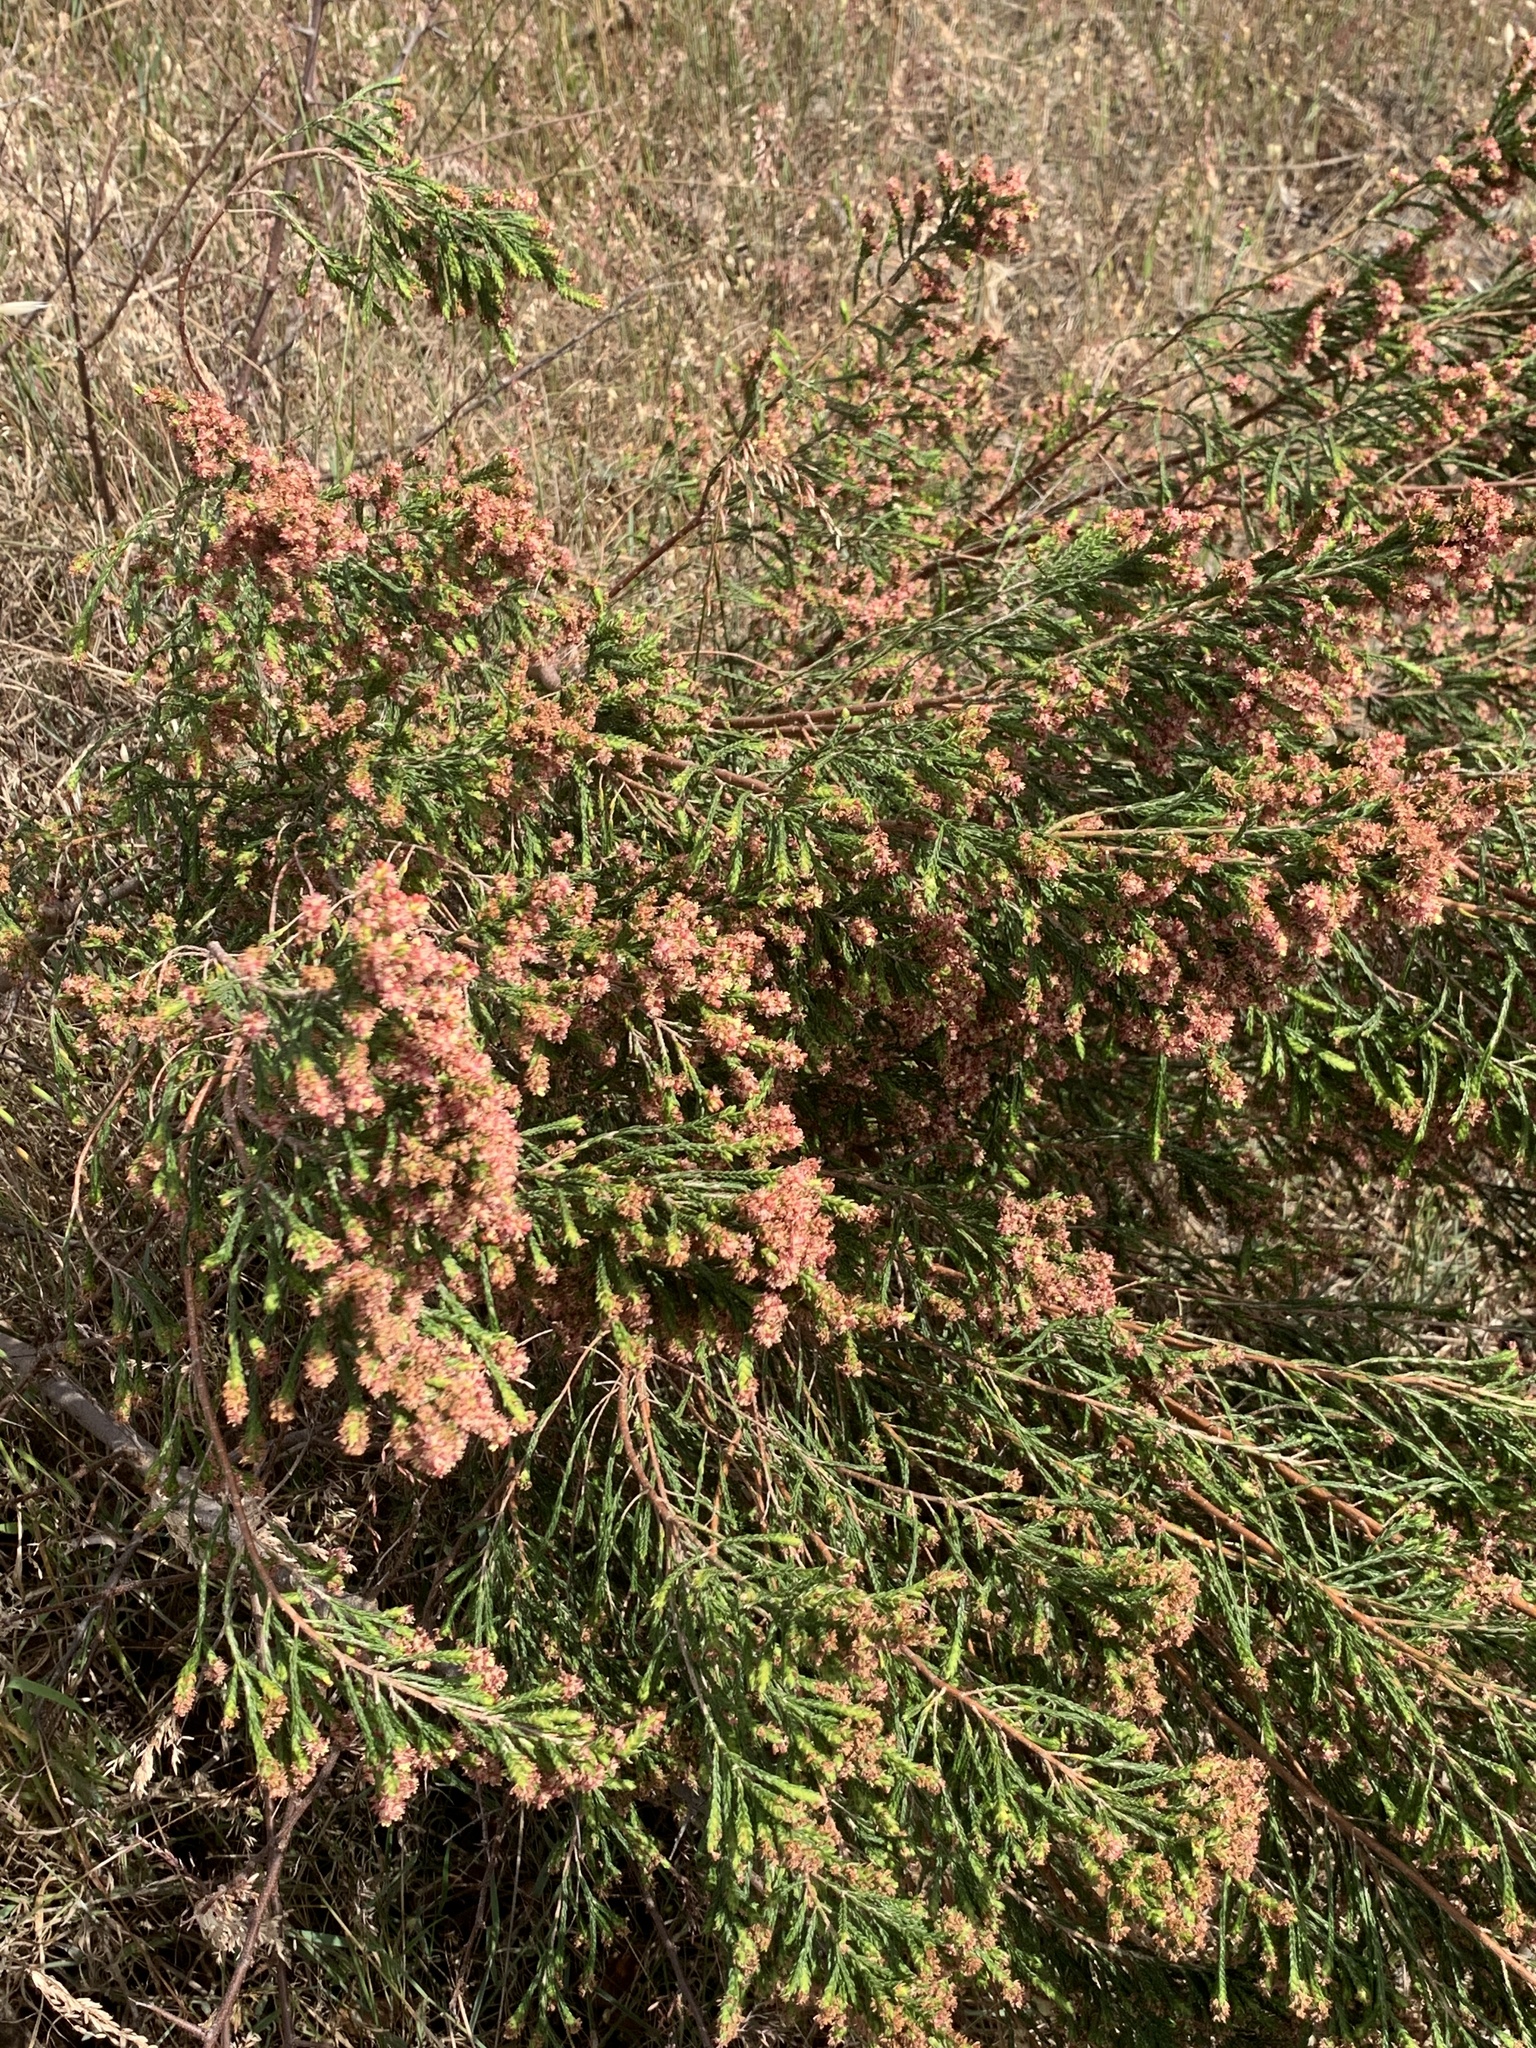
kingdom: Plantae
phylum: Tracheophyta
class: Magnoliopsida
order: Malvales
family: Thymelaeaceae
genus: Passerina
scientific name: Passerina corymbosa
